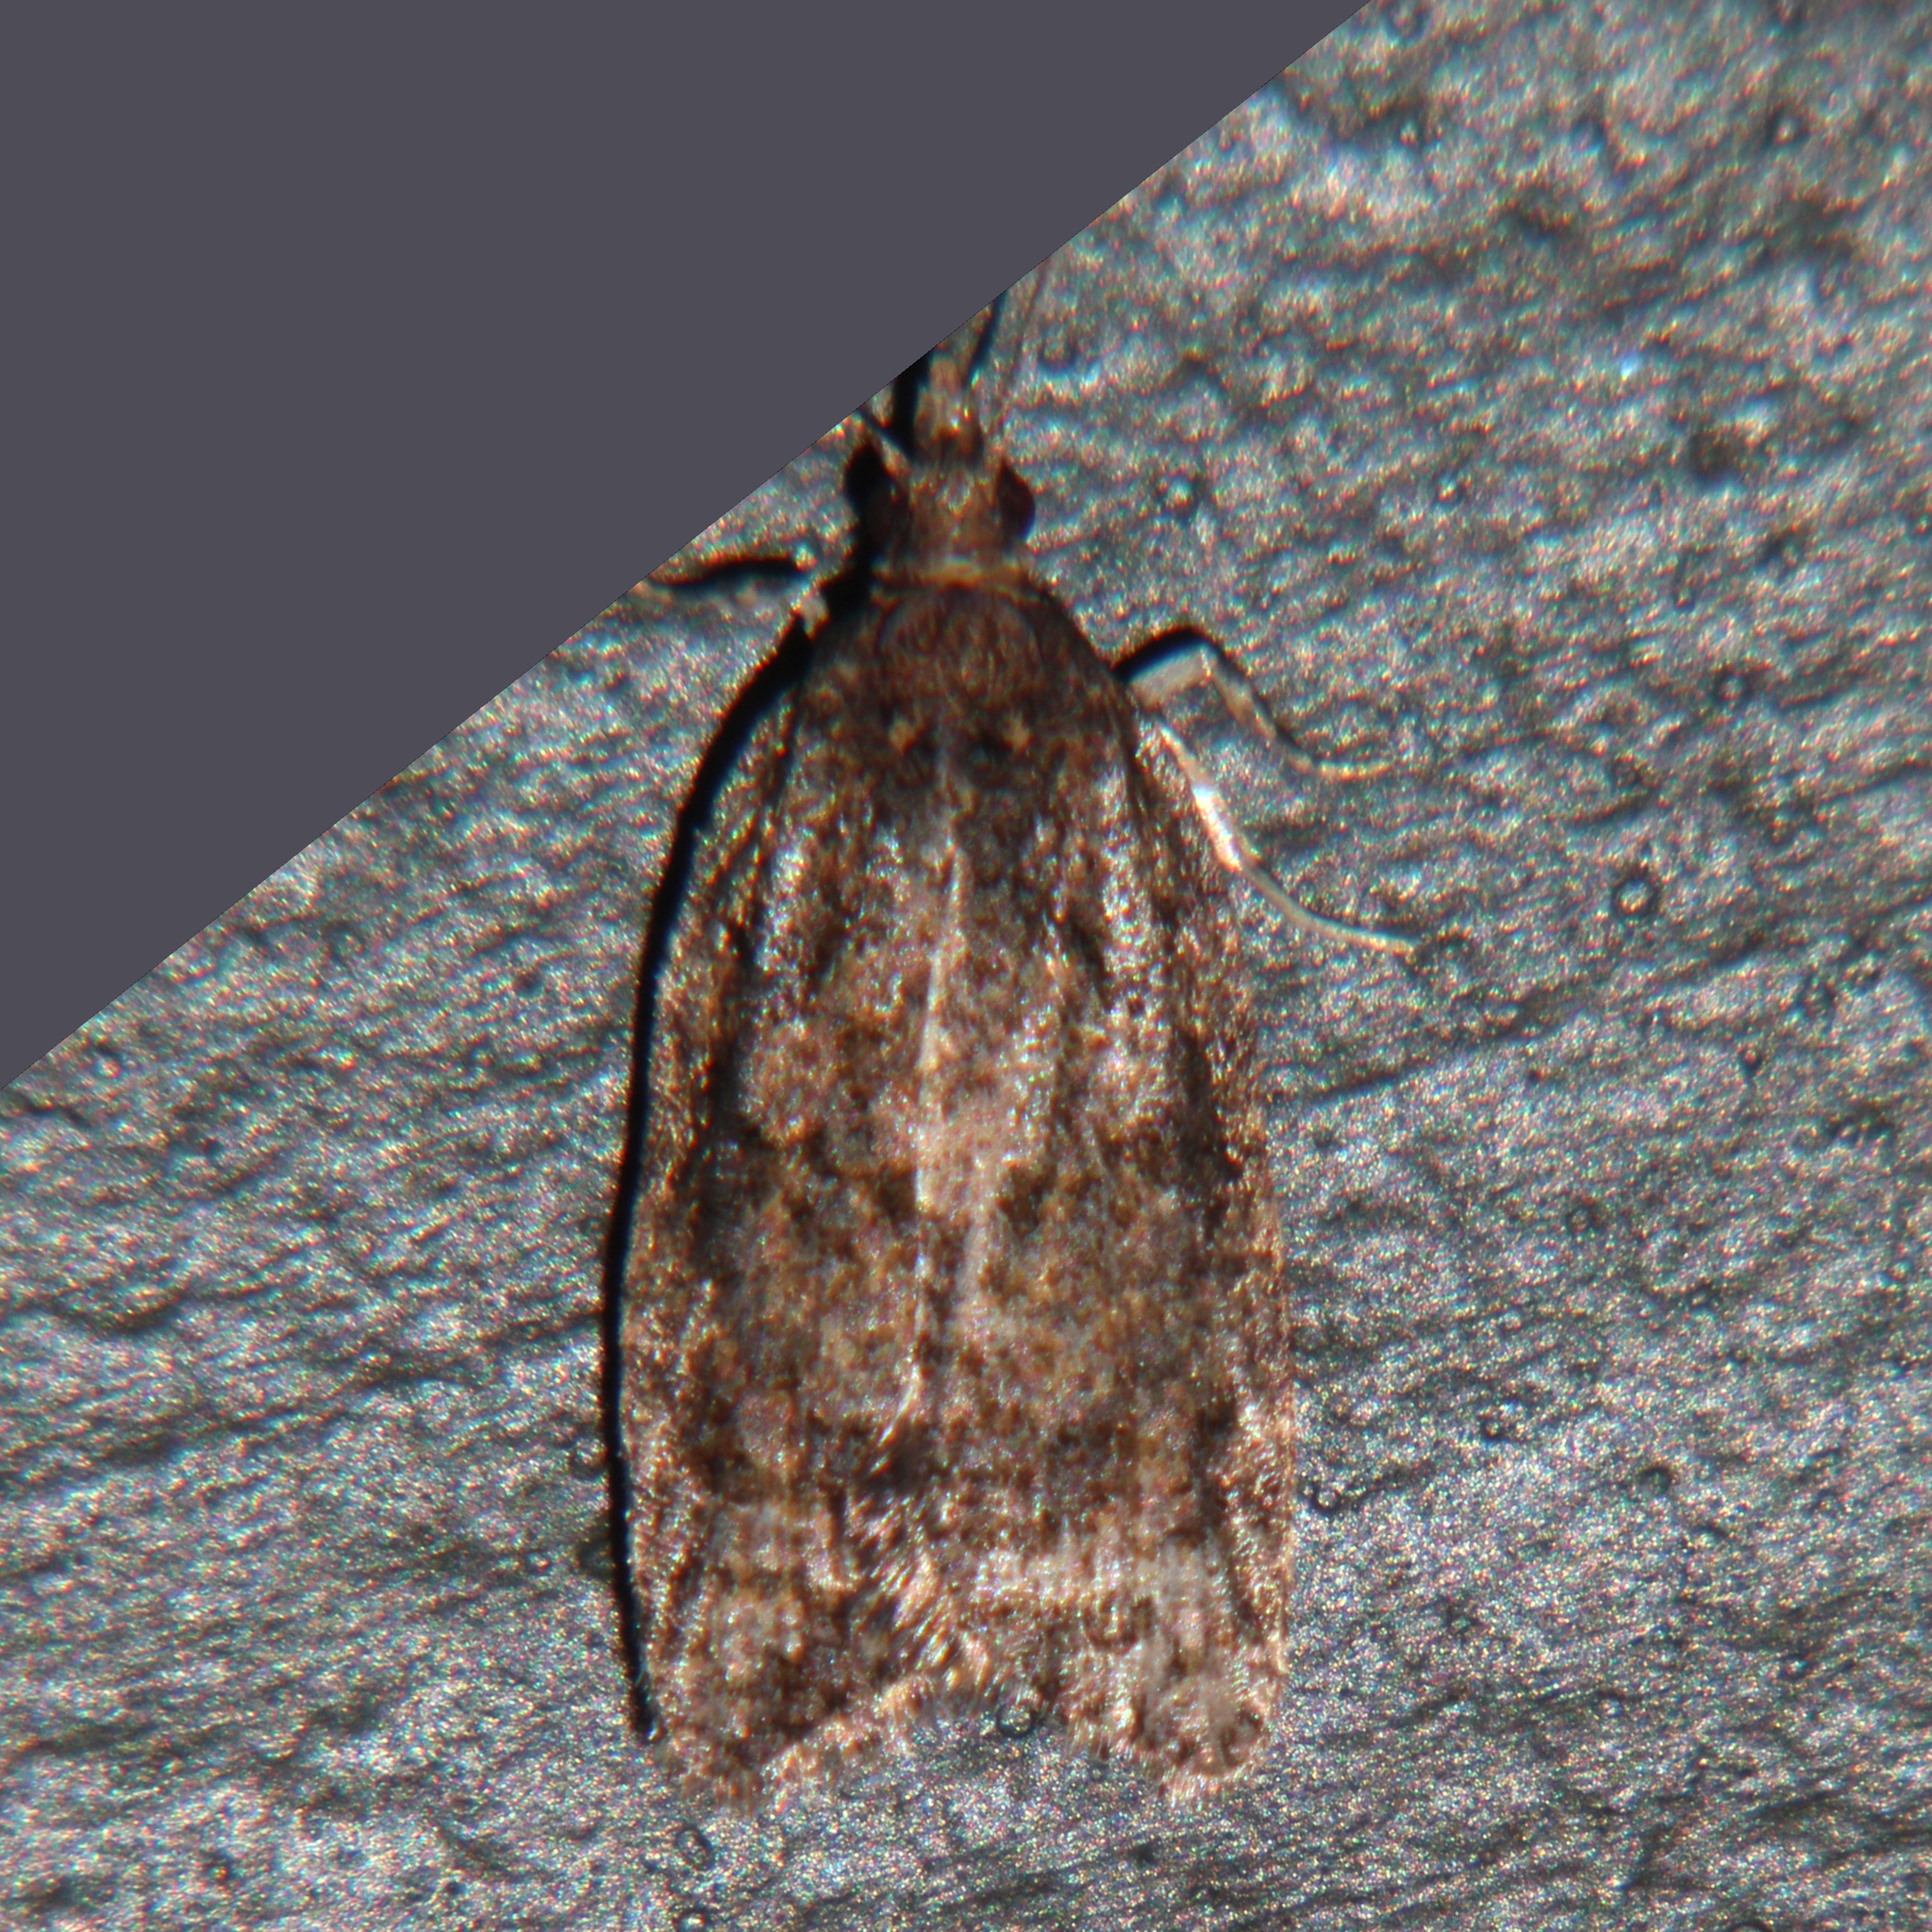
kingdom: Animalia
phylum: Arthropoda
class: Insecta
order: Lepidoptera
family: Tortricidae
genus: Capua
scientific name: Capua intractana
